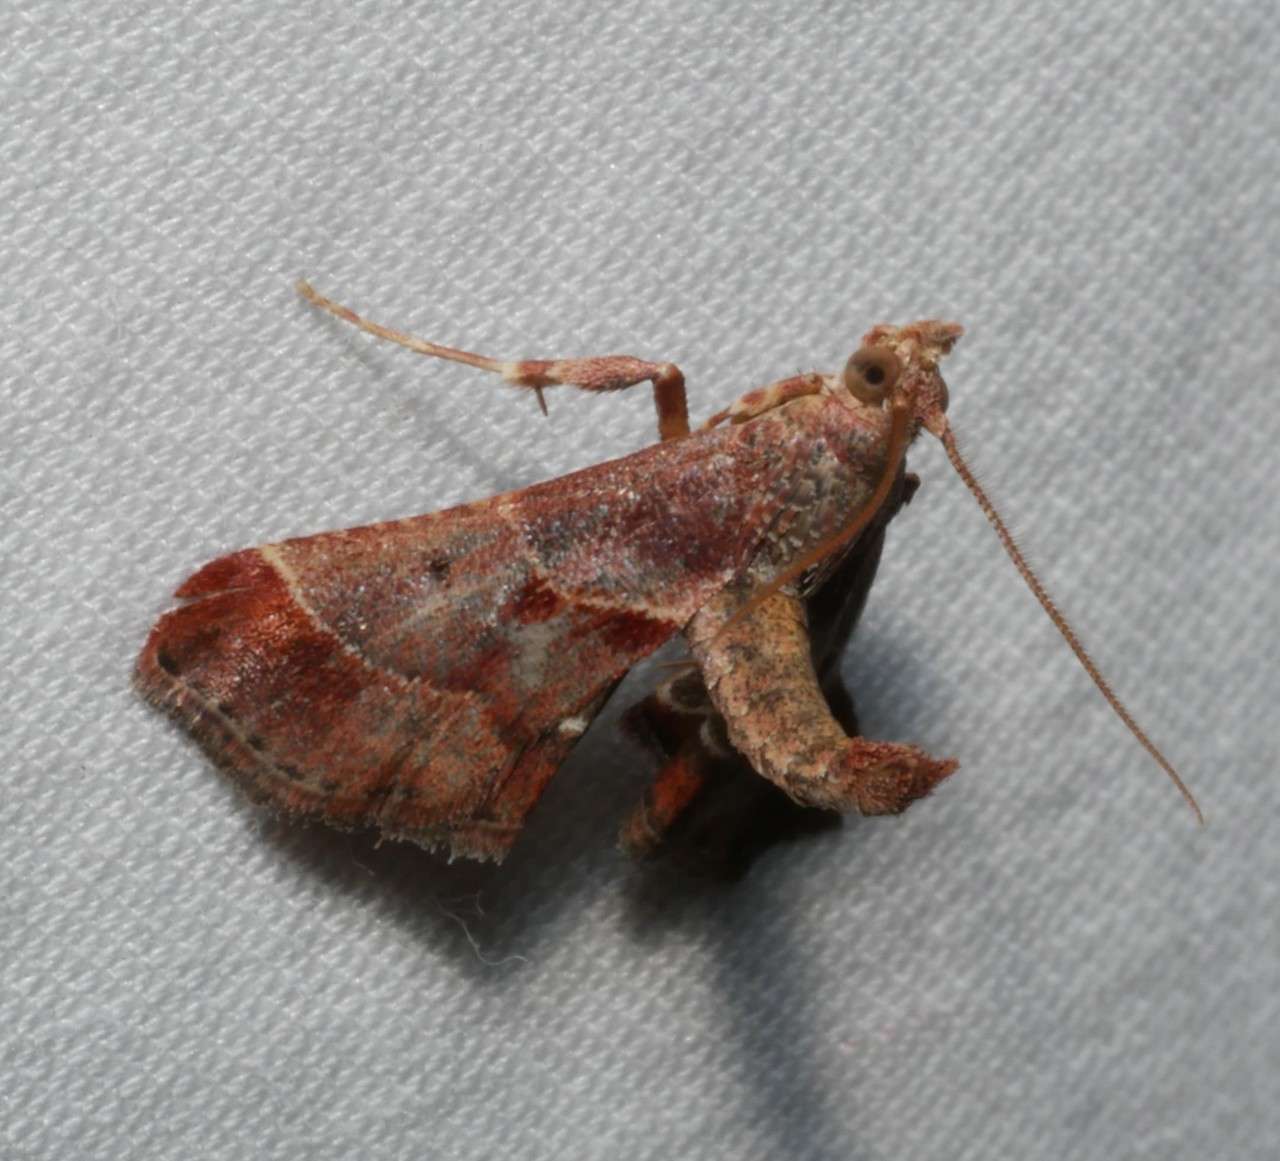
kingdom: Animalia
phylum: Arthropoda
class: Insecta
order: Lepidoptera
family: Pyralidae
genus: Gauna
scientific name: Gauna aegusalis
